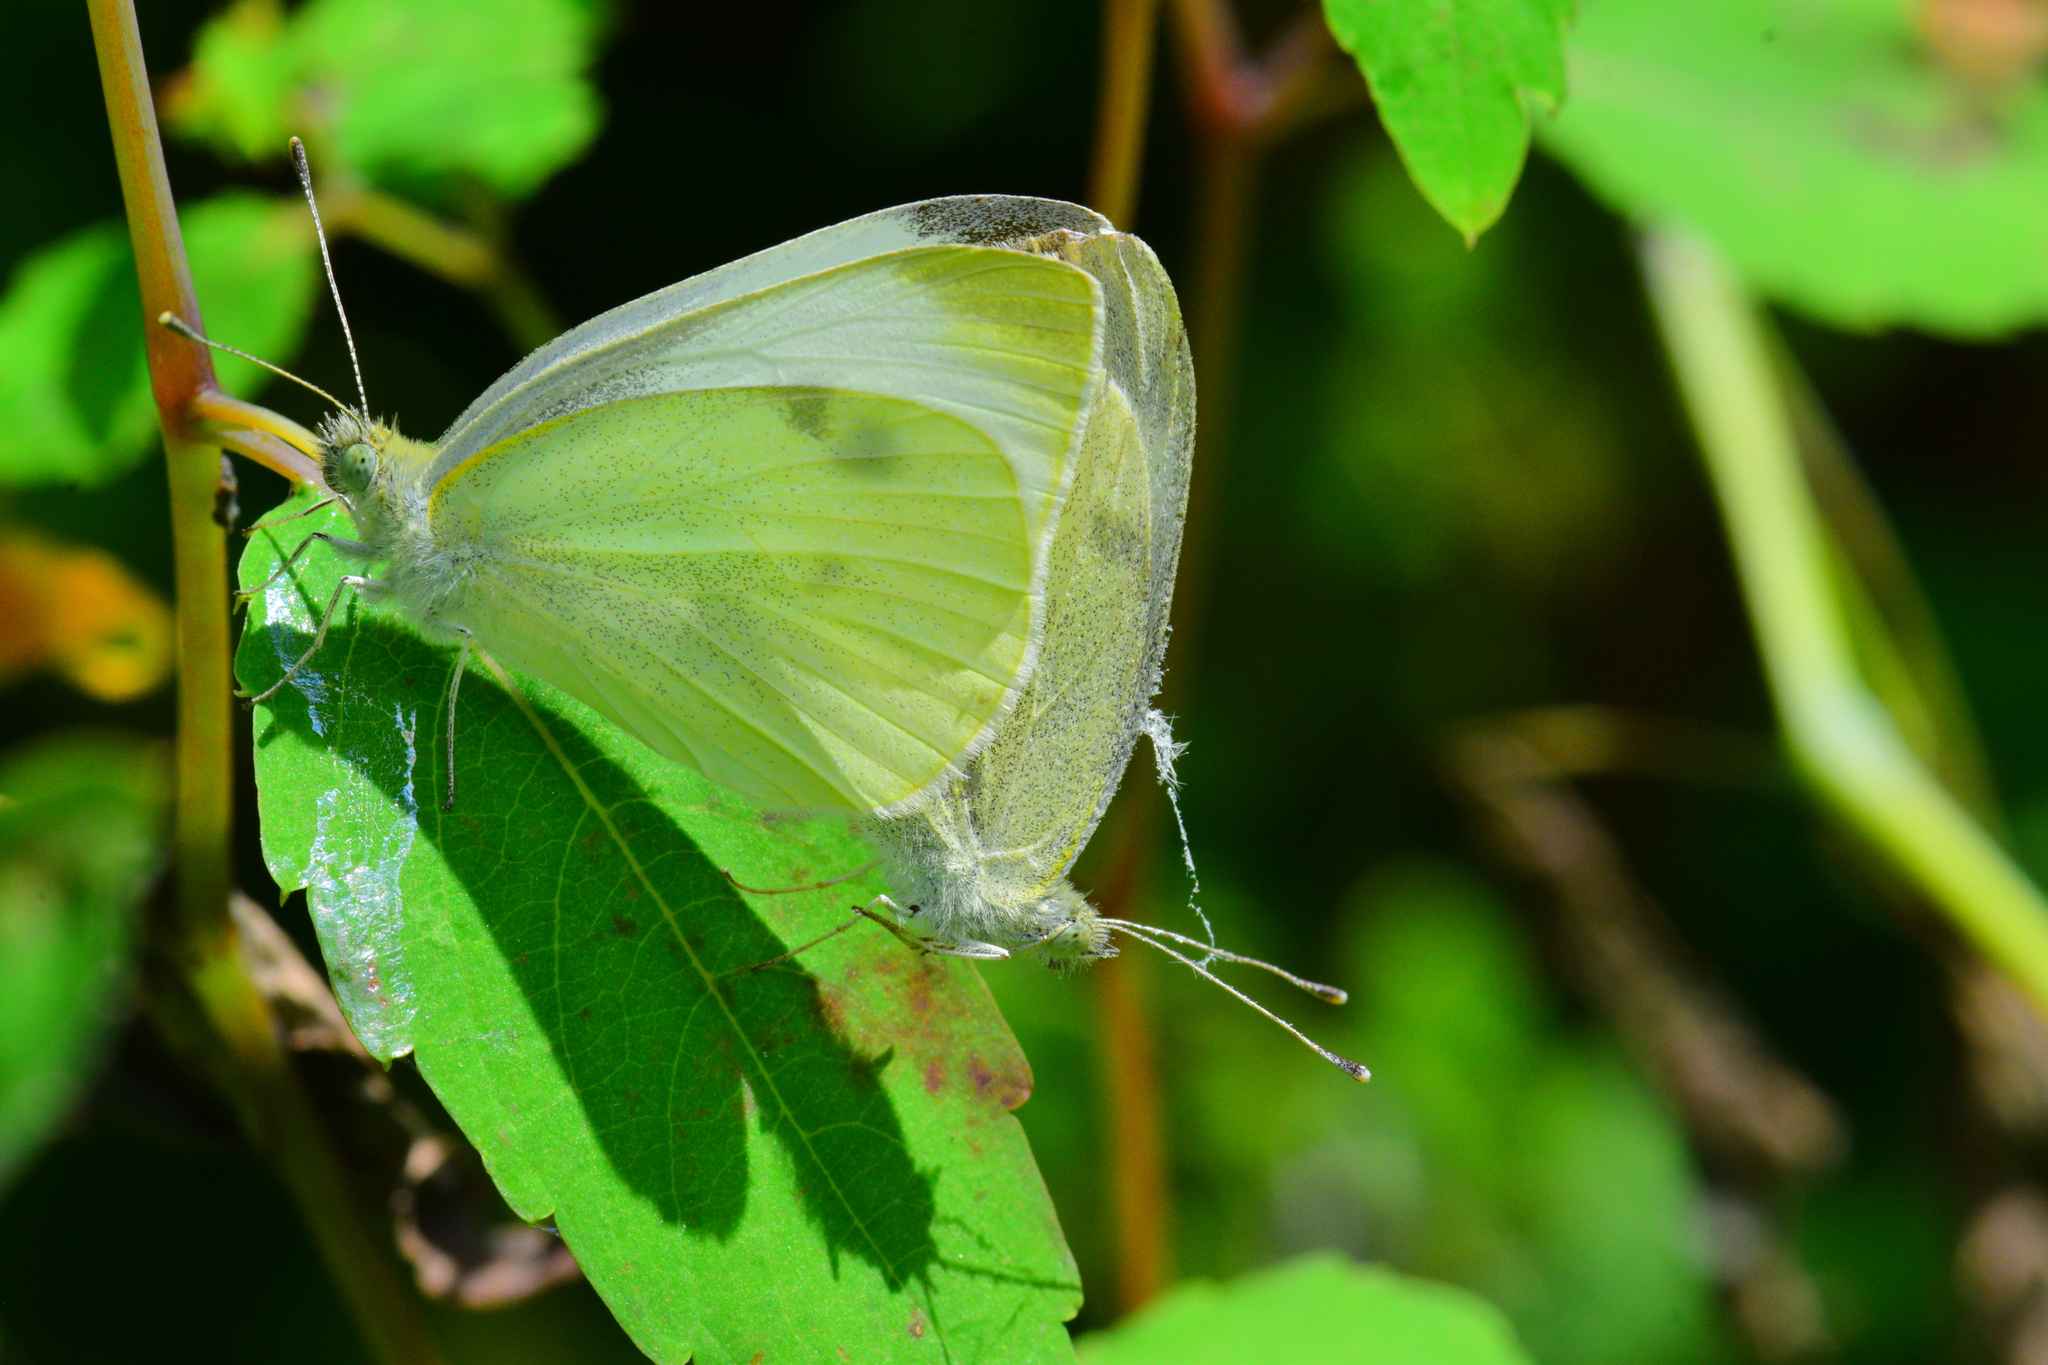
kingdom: Animalia
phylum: Arthropoda
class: Insecta
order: Lepidoptera
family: Pieridae
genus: Pieris
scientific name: Pieris rapae
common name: Small white
